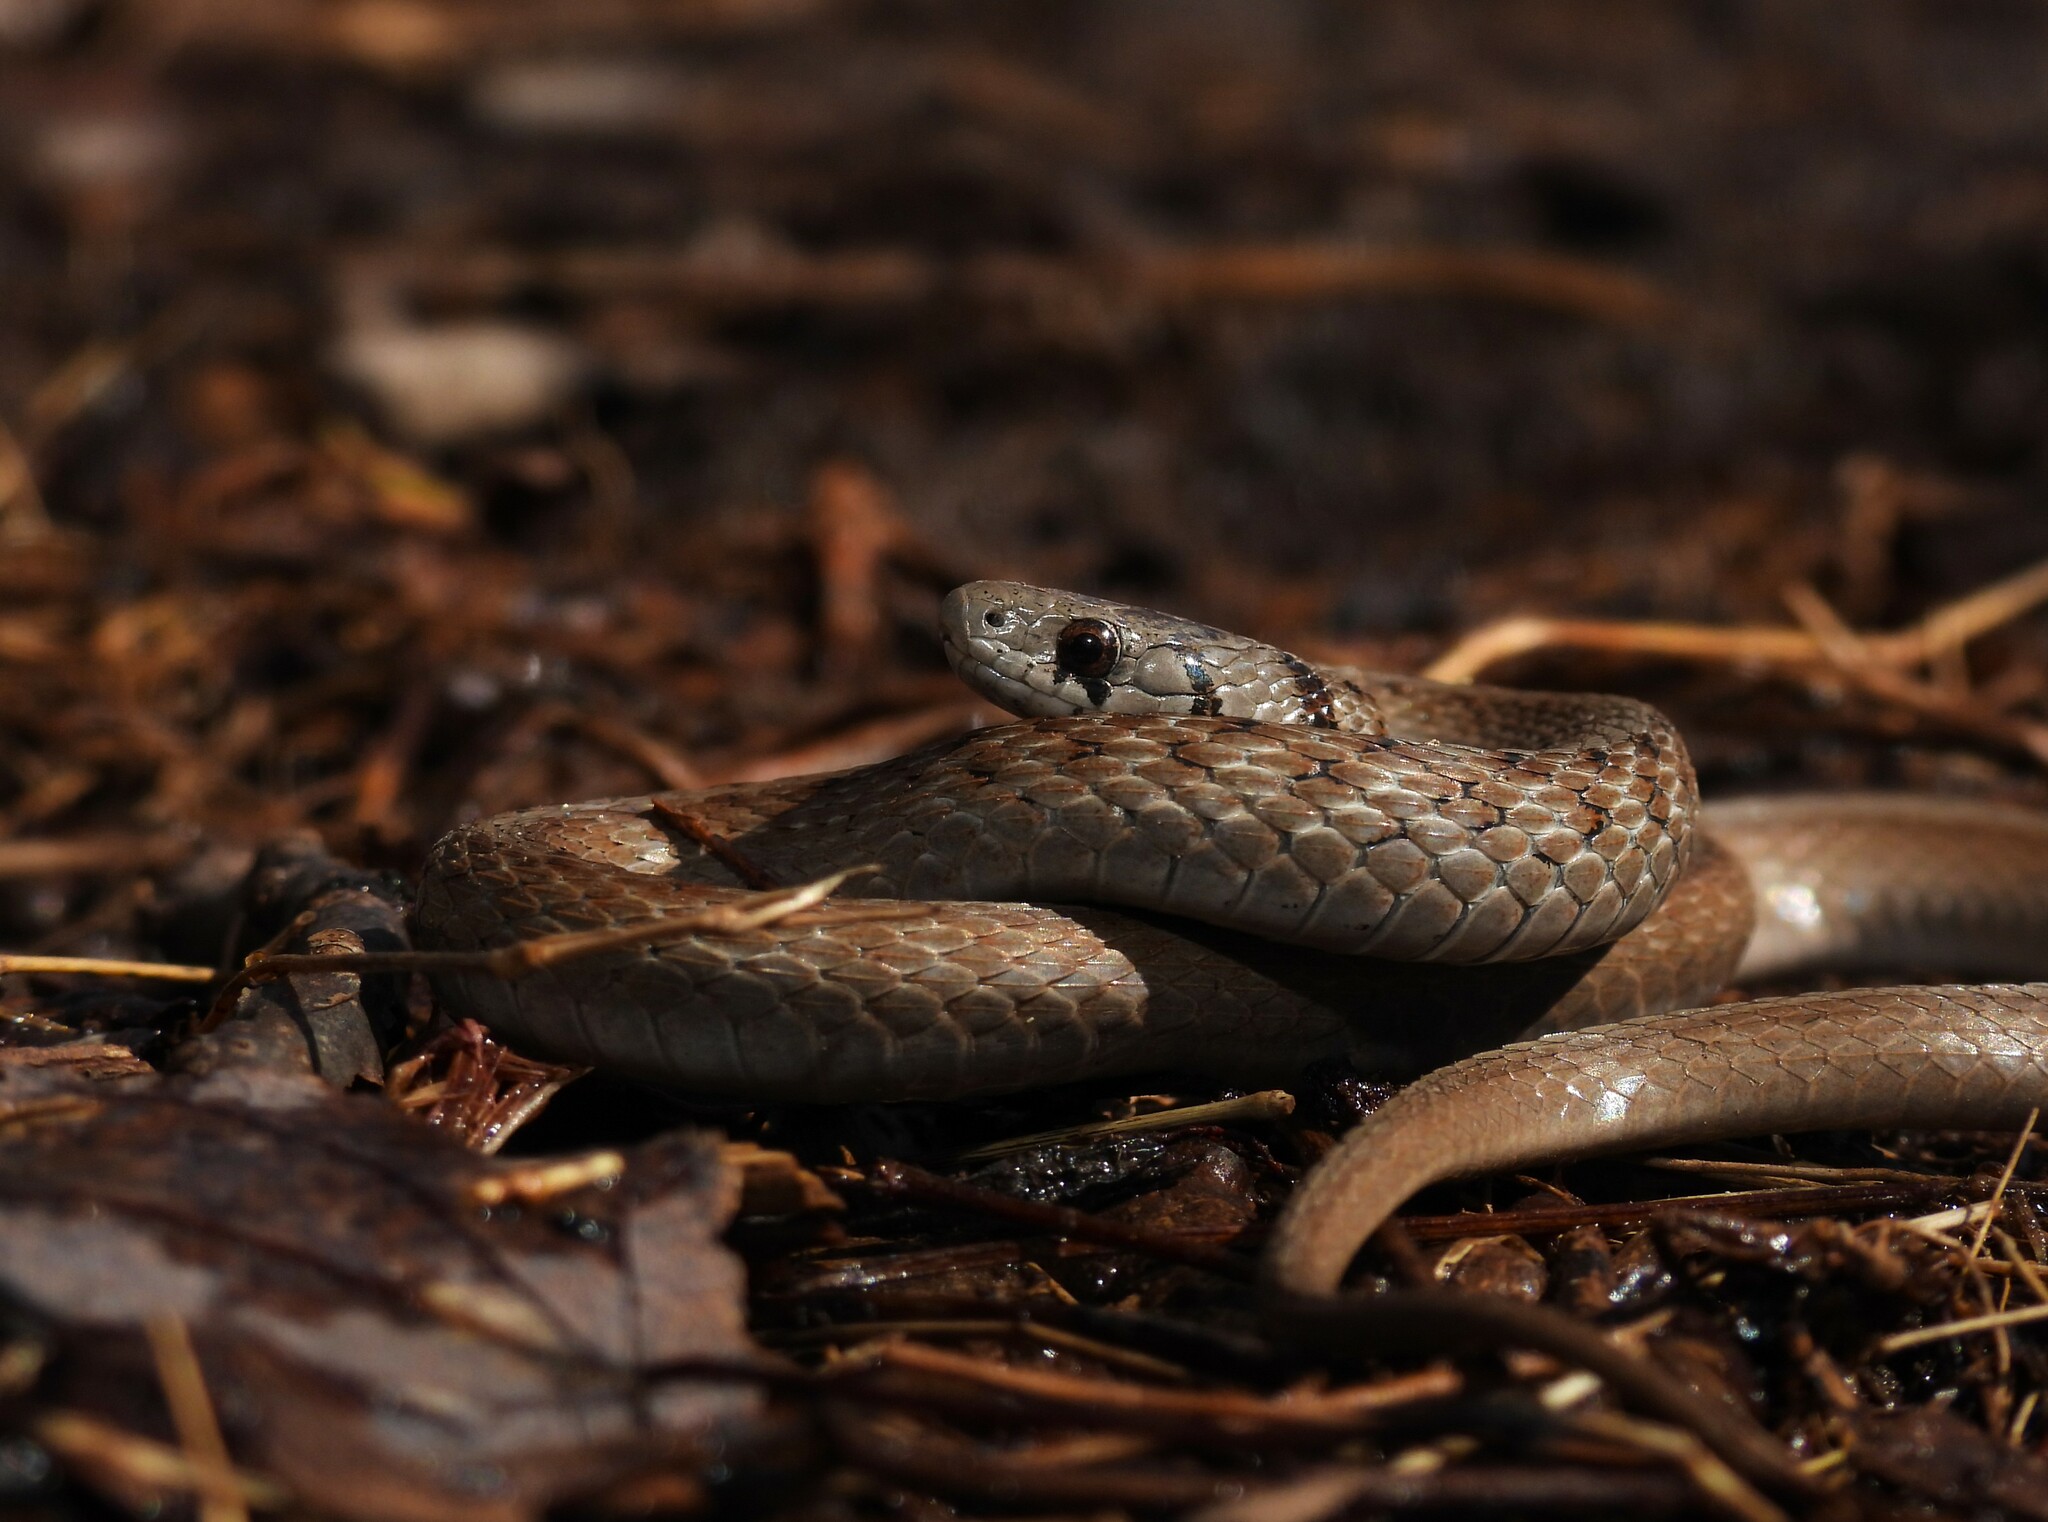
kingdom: Animalia
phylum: Chordata
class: Squamata
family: Colubridae
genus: Storeria
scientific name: Storeria dekayi
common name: (dekay’s) brown snake
